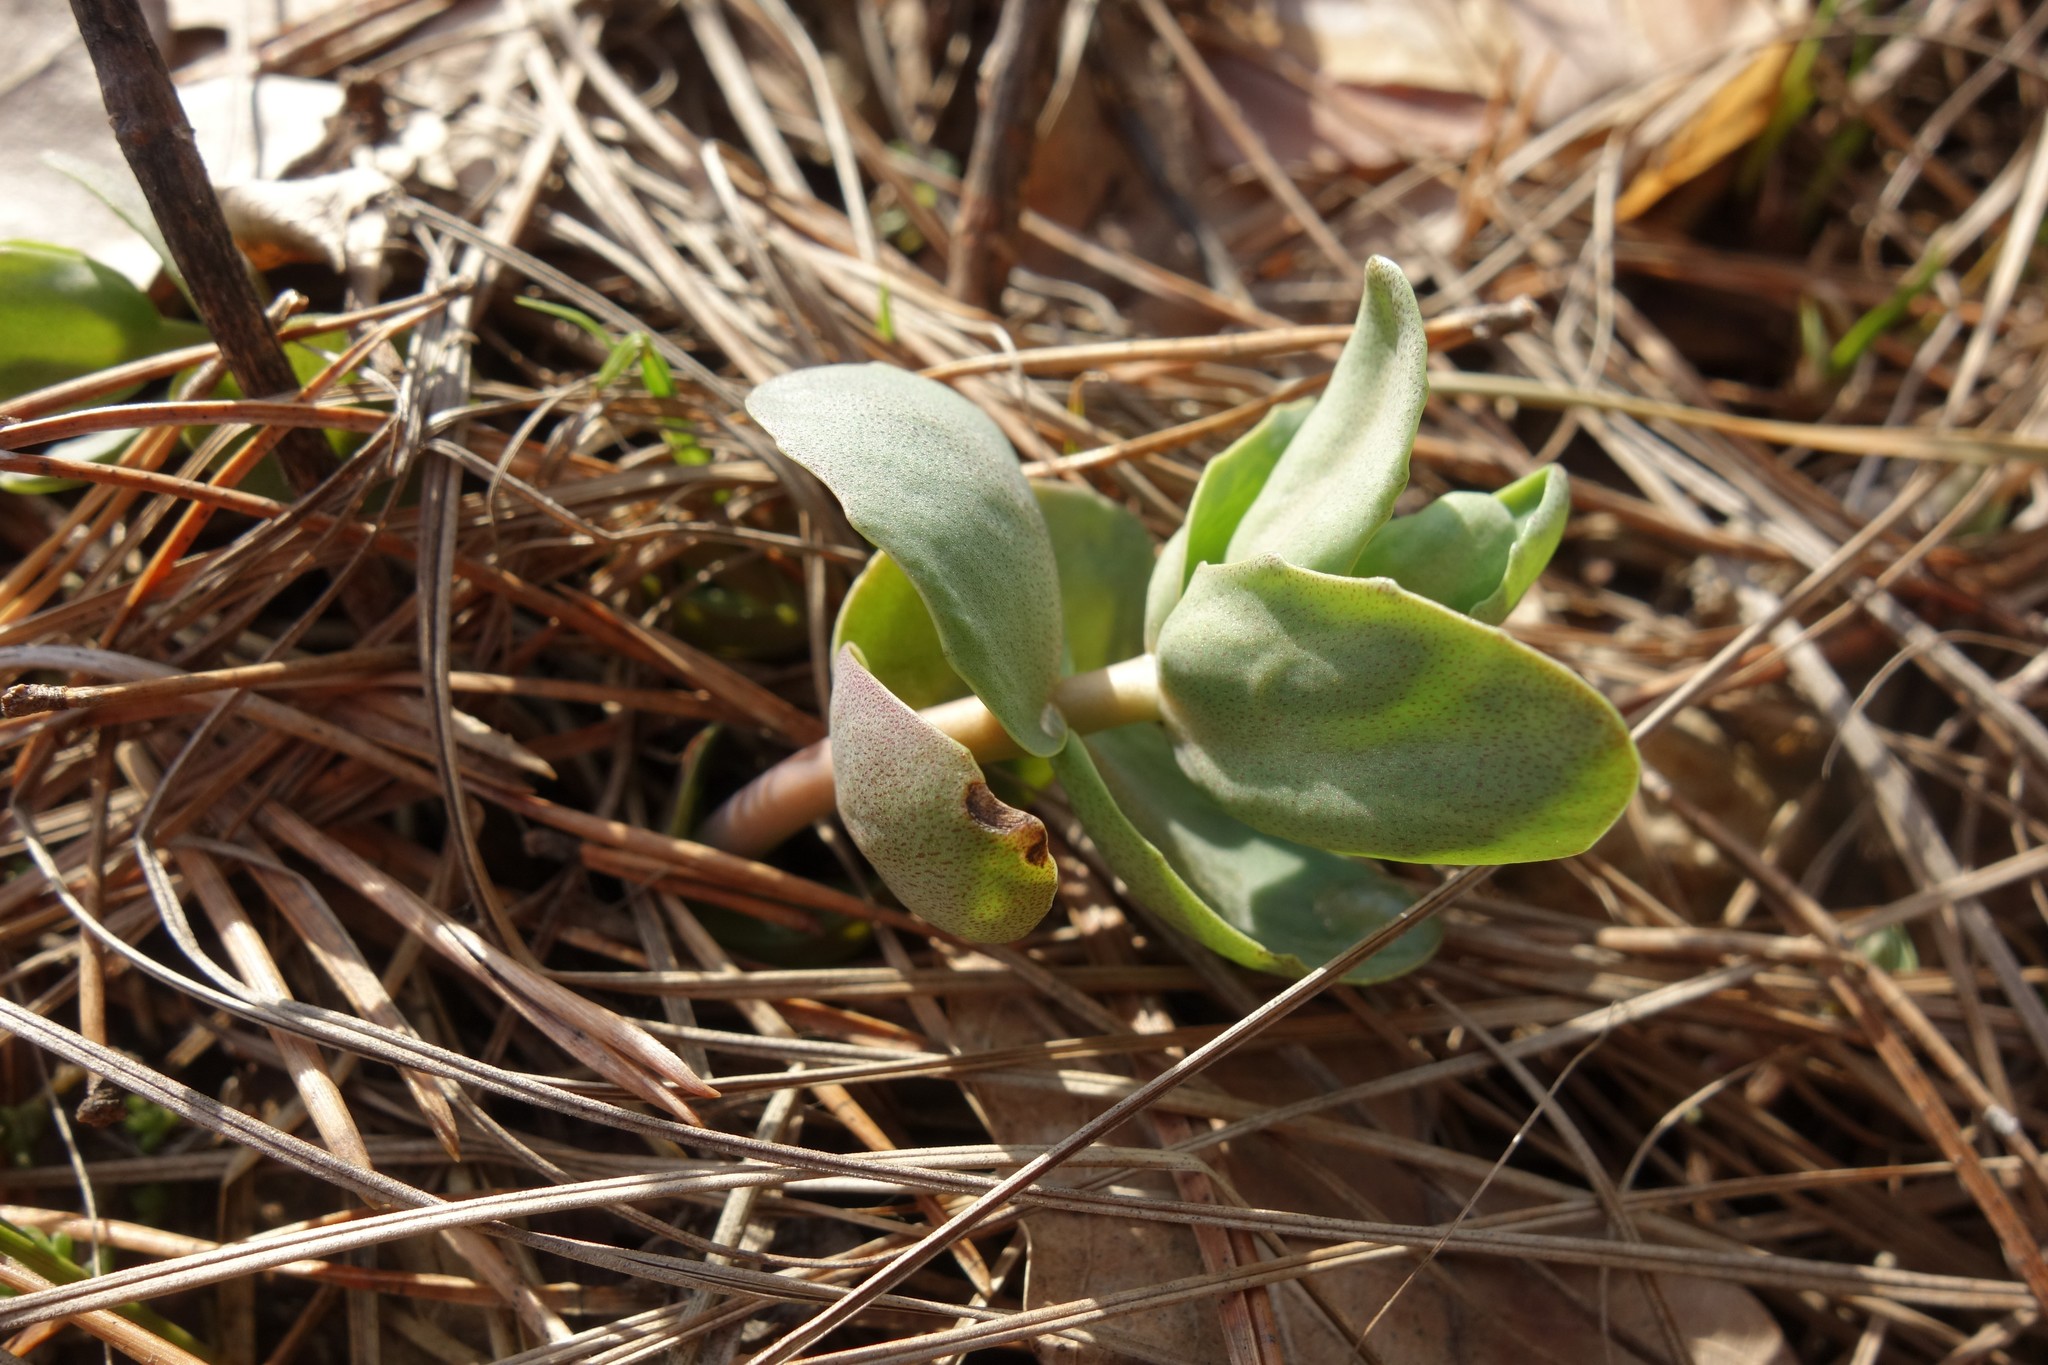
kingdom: Plantae
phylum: Tracheophyta
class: Magnoliopsida
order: Saxifragales
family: Crassulaceae
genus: Hylotelephium
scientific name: Hylotelephium maximum
